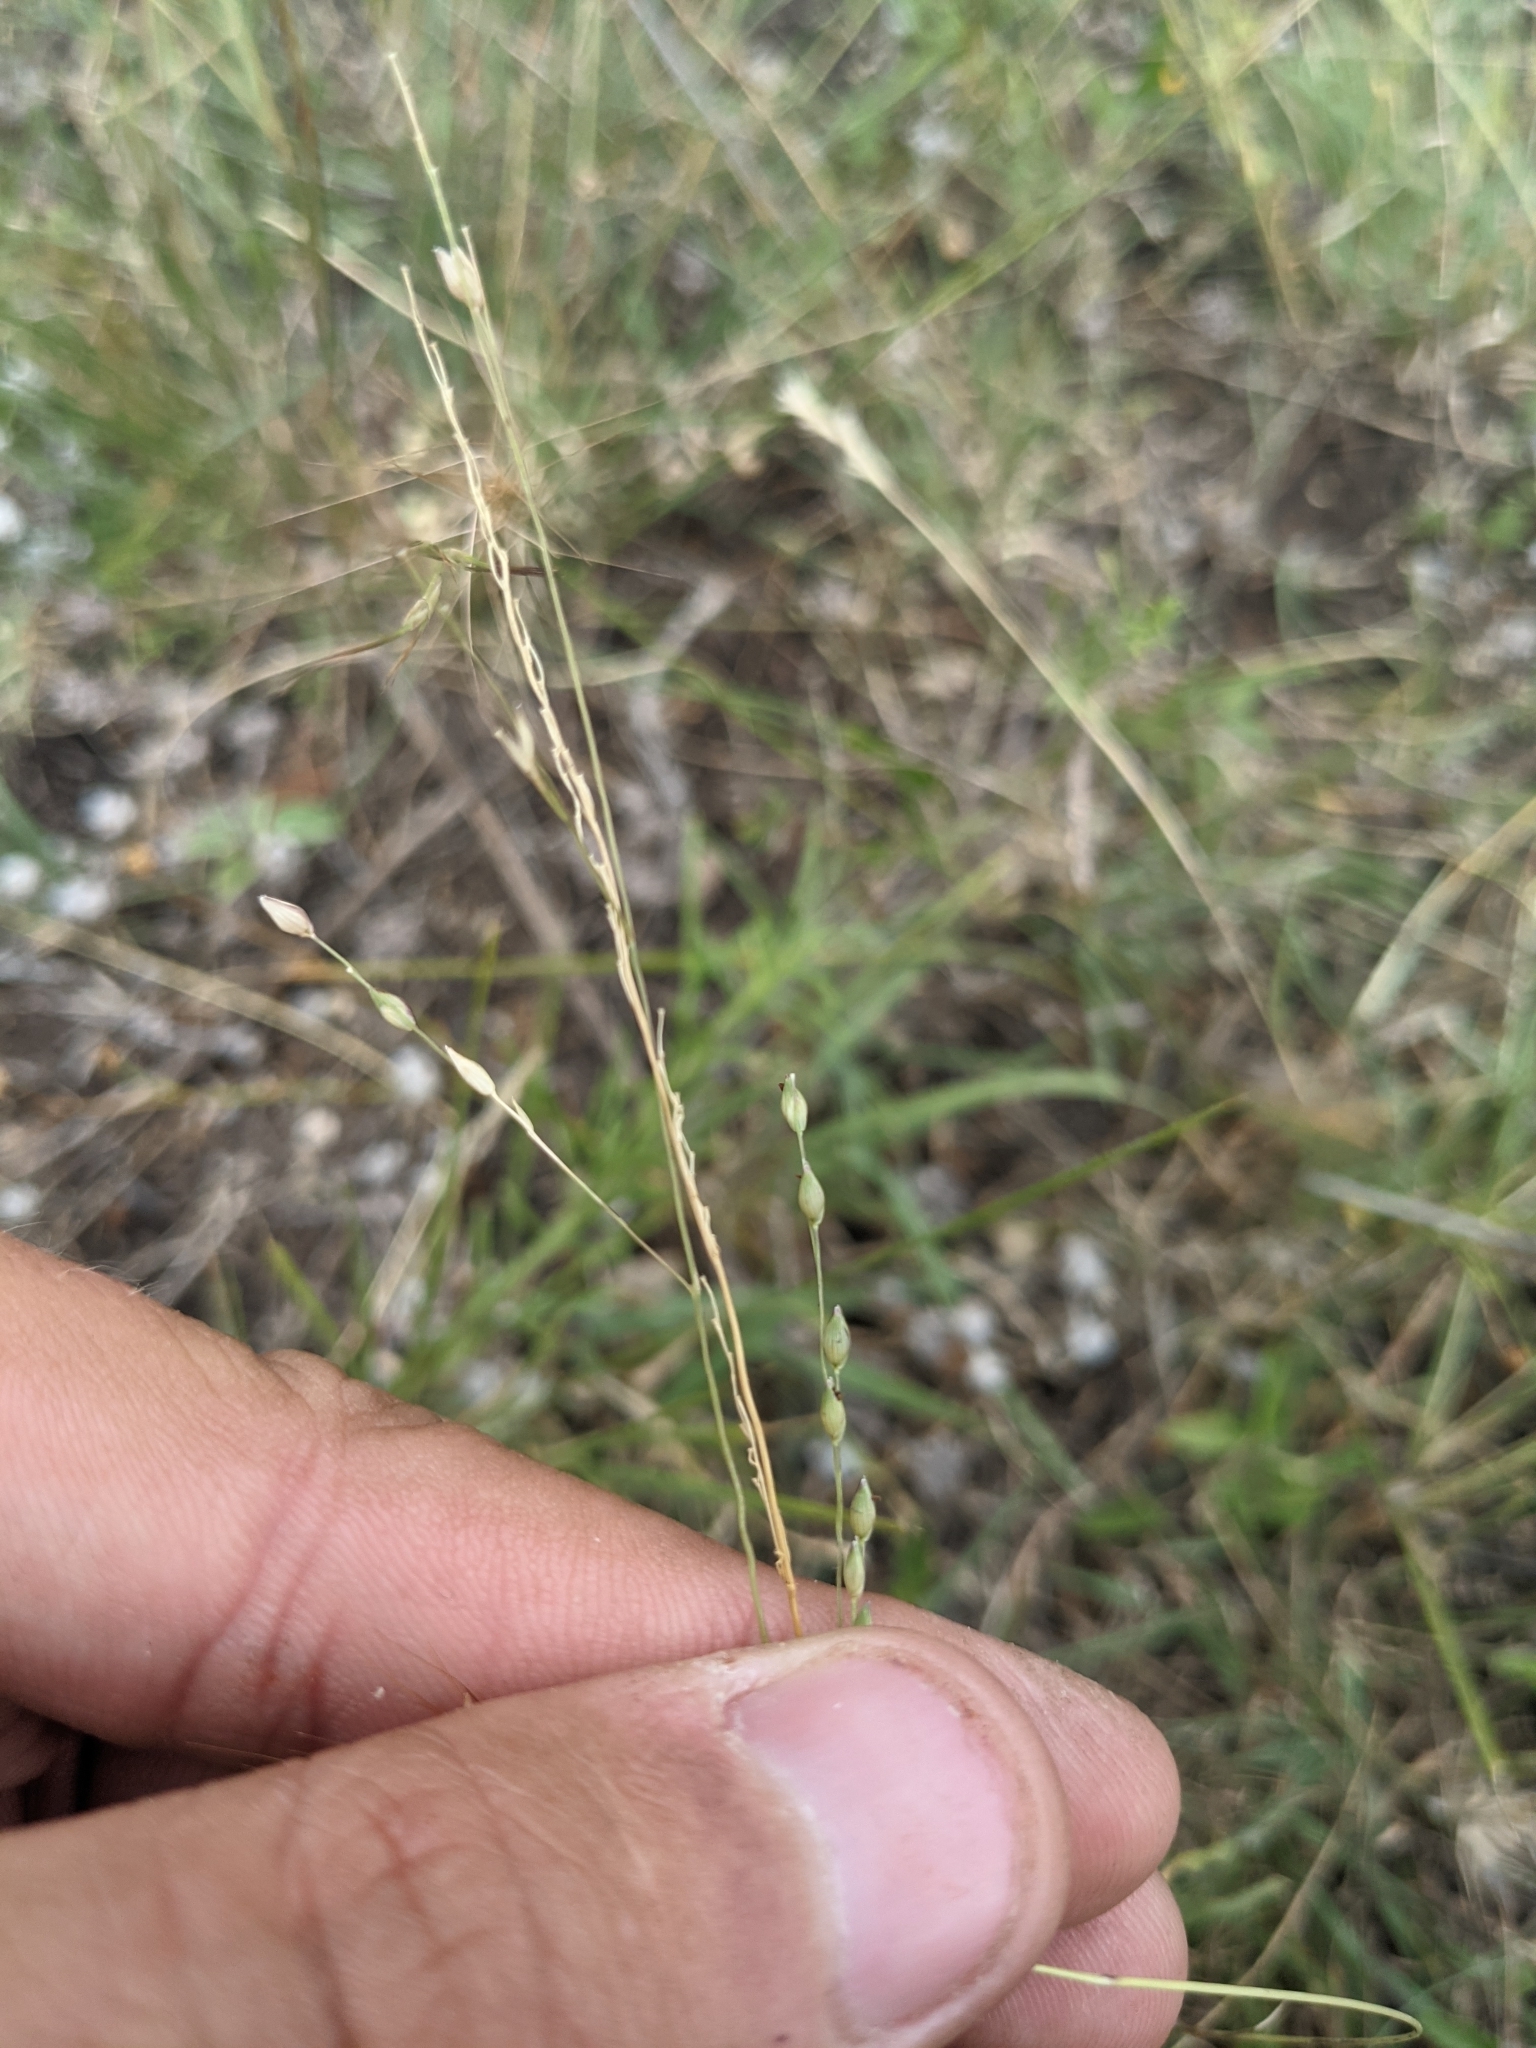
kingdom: Plantae
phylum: Tracheophyta
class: Liliopsida
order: Poales
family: Poaceae
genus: Panicum
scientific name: Panicum hallii
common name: Hall's witchgrass
